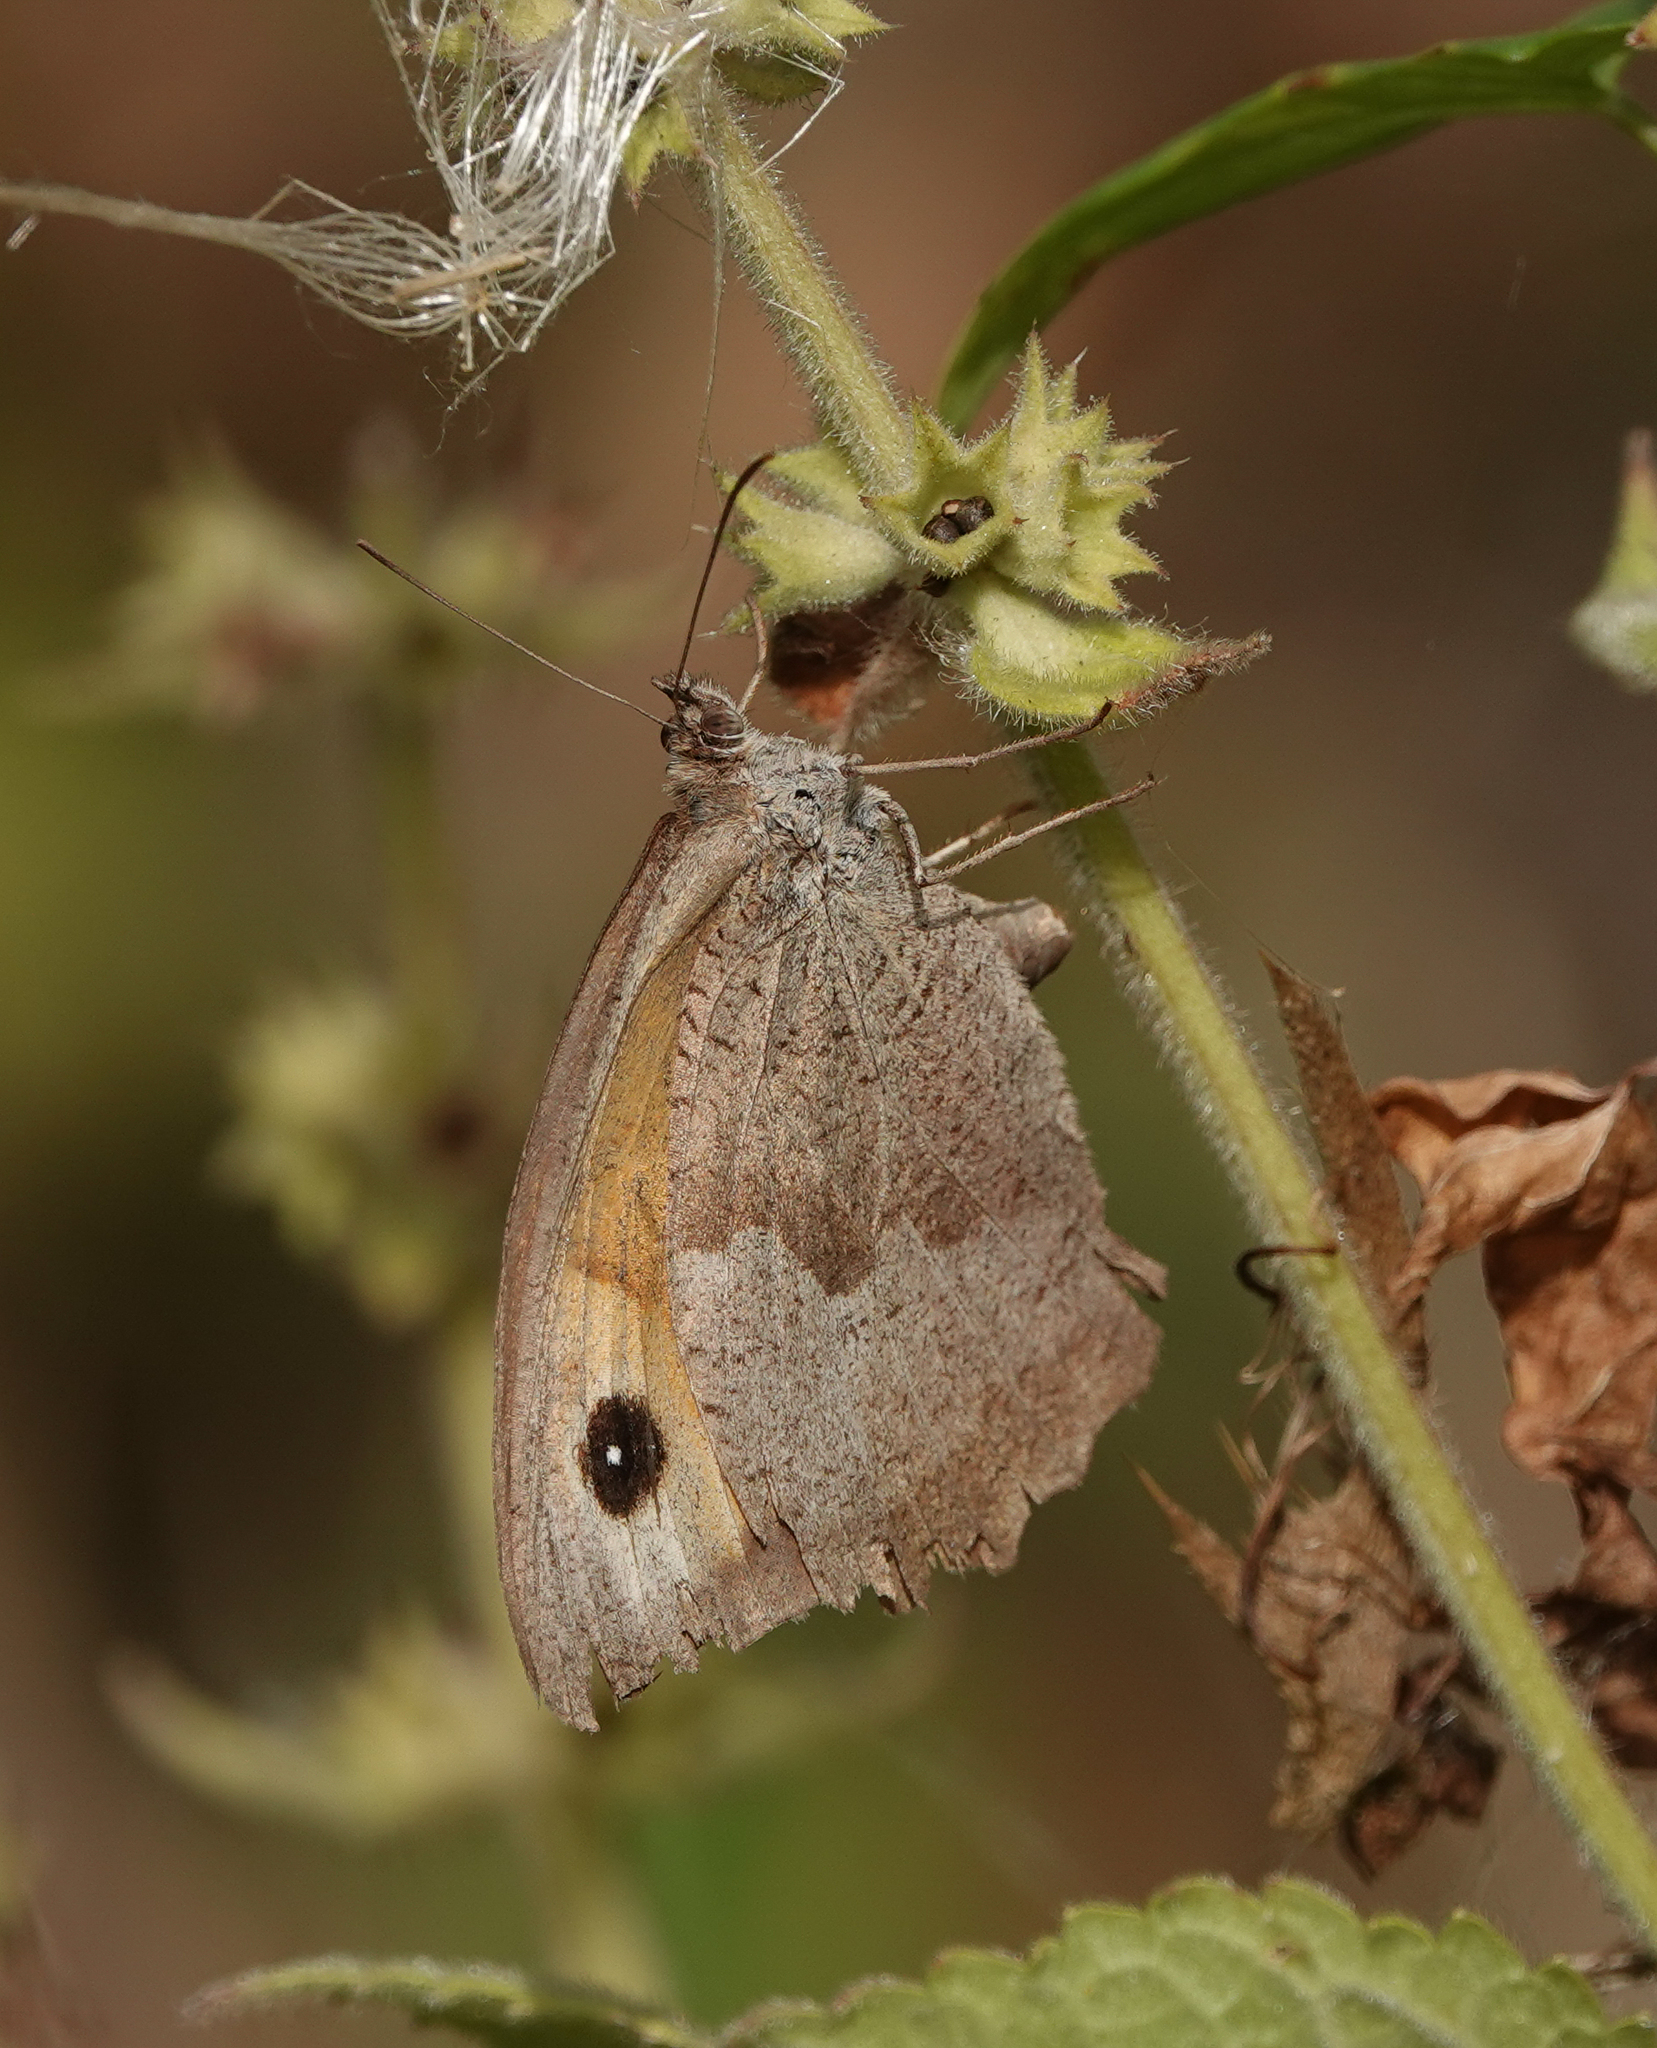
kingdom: Animalia
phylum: Arthropoda
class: Insecta
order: Lepidoptera
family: Nymphalidae
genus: Maniola
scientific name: Maniola jurtina
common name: Meadow brown
